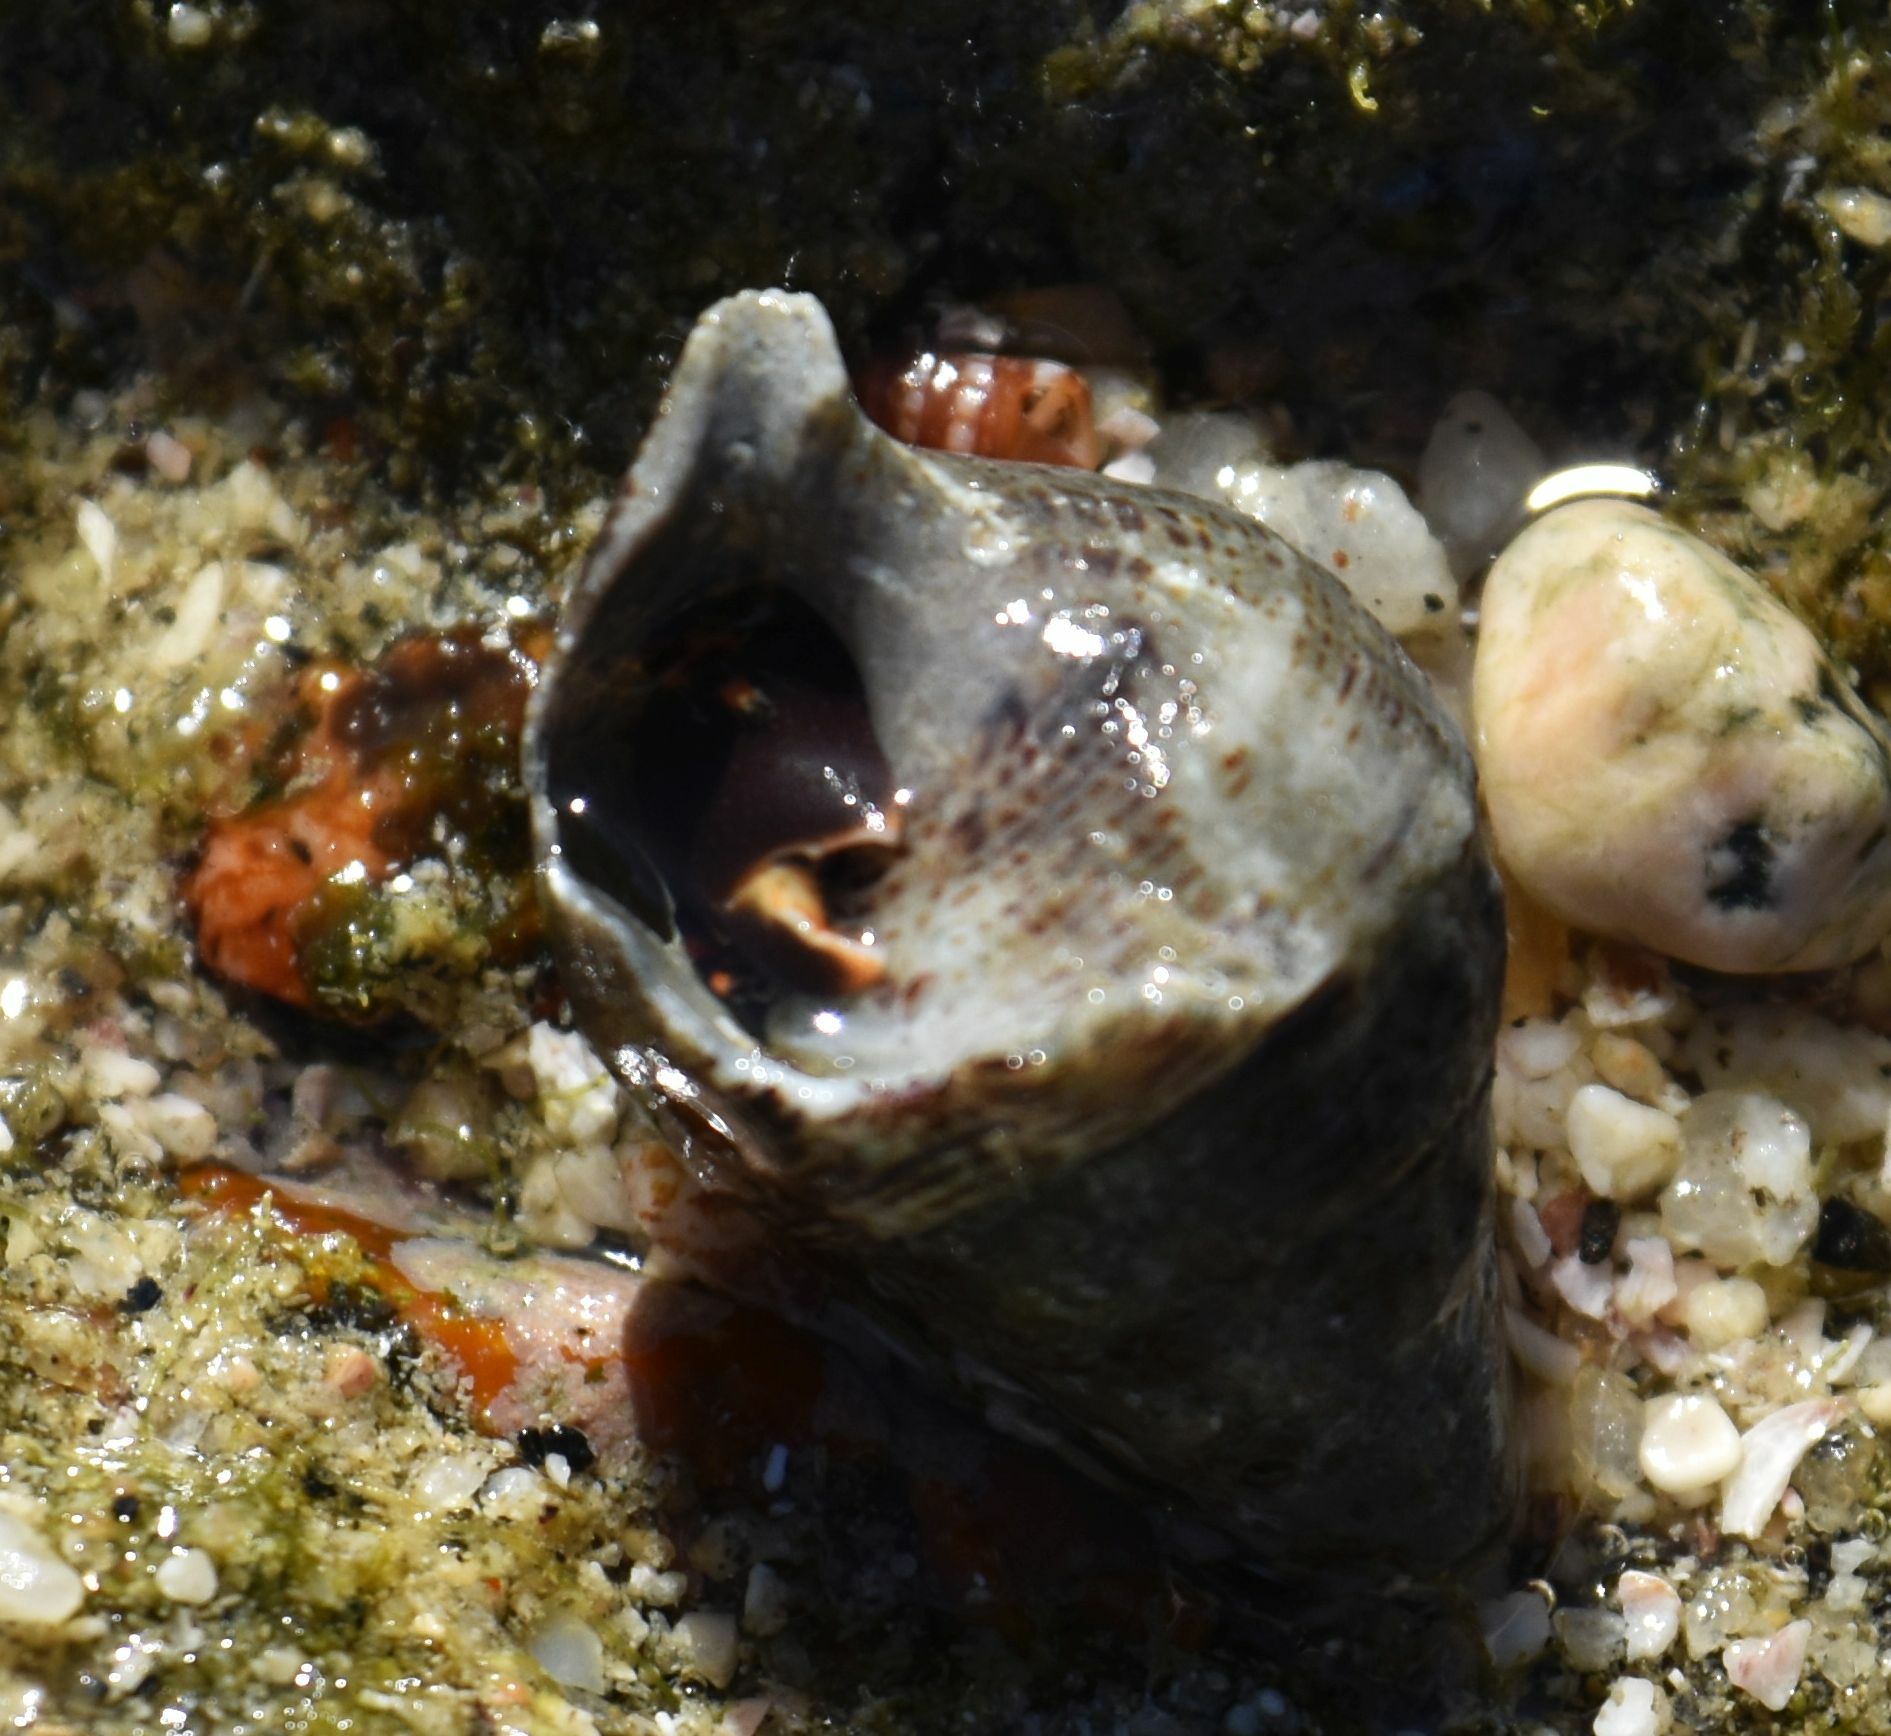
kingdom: Animalia
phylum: Arthropoda
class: Malacostraca
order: Decapoda
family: Diogenidae
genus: Calcinus
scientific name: Calcinus explorator
